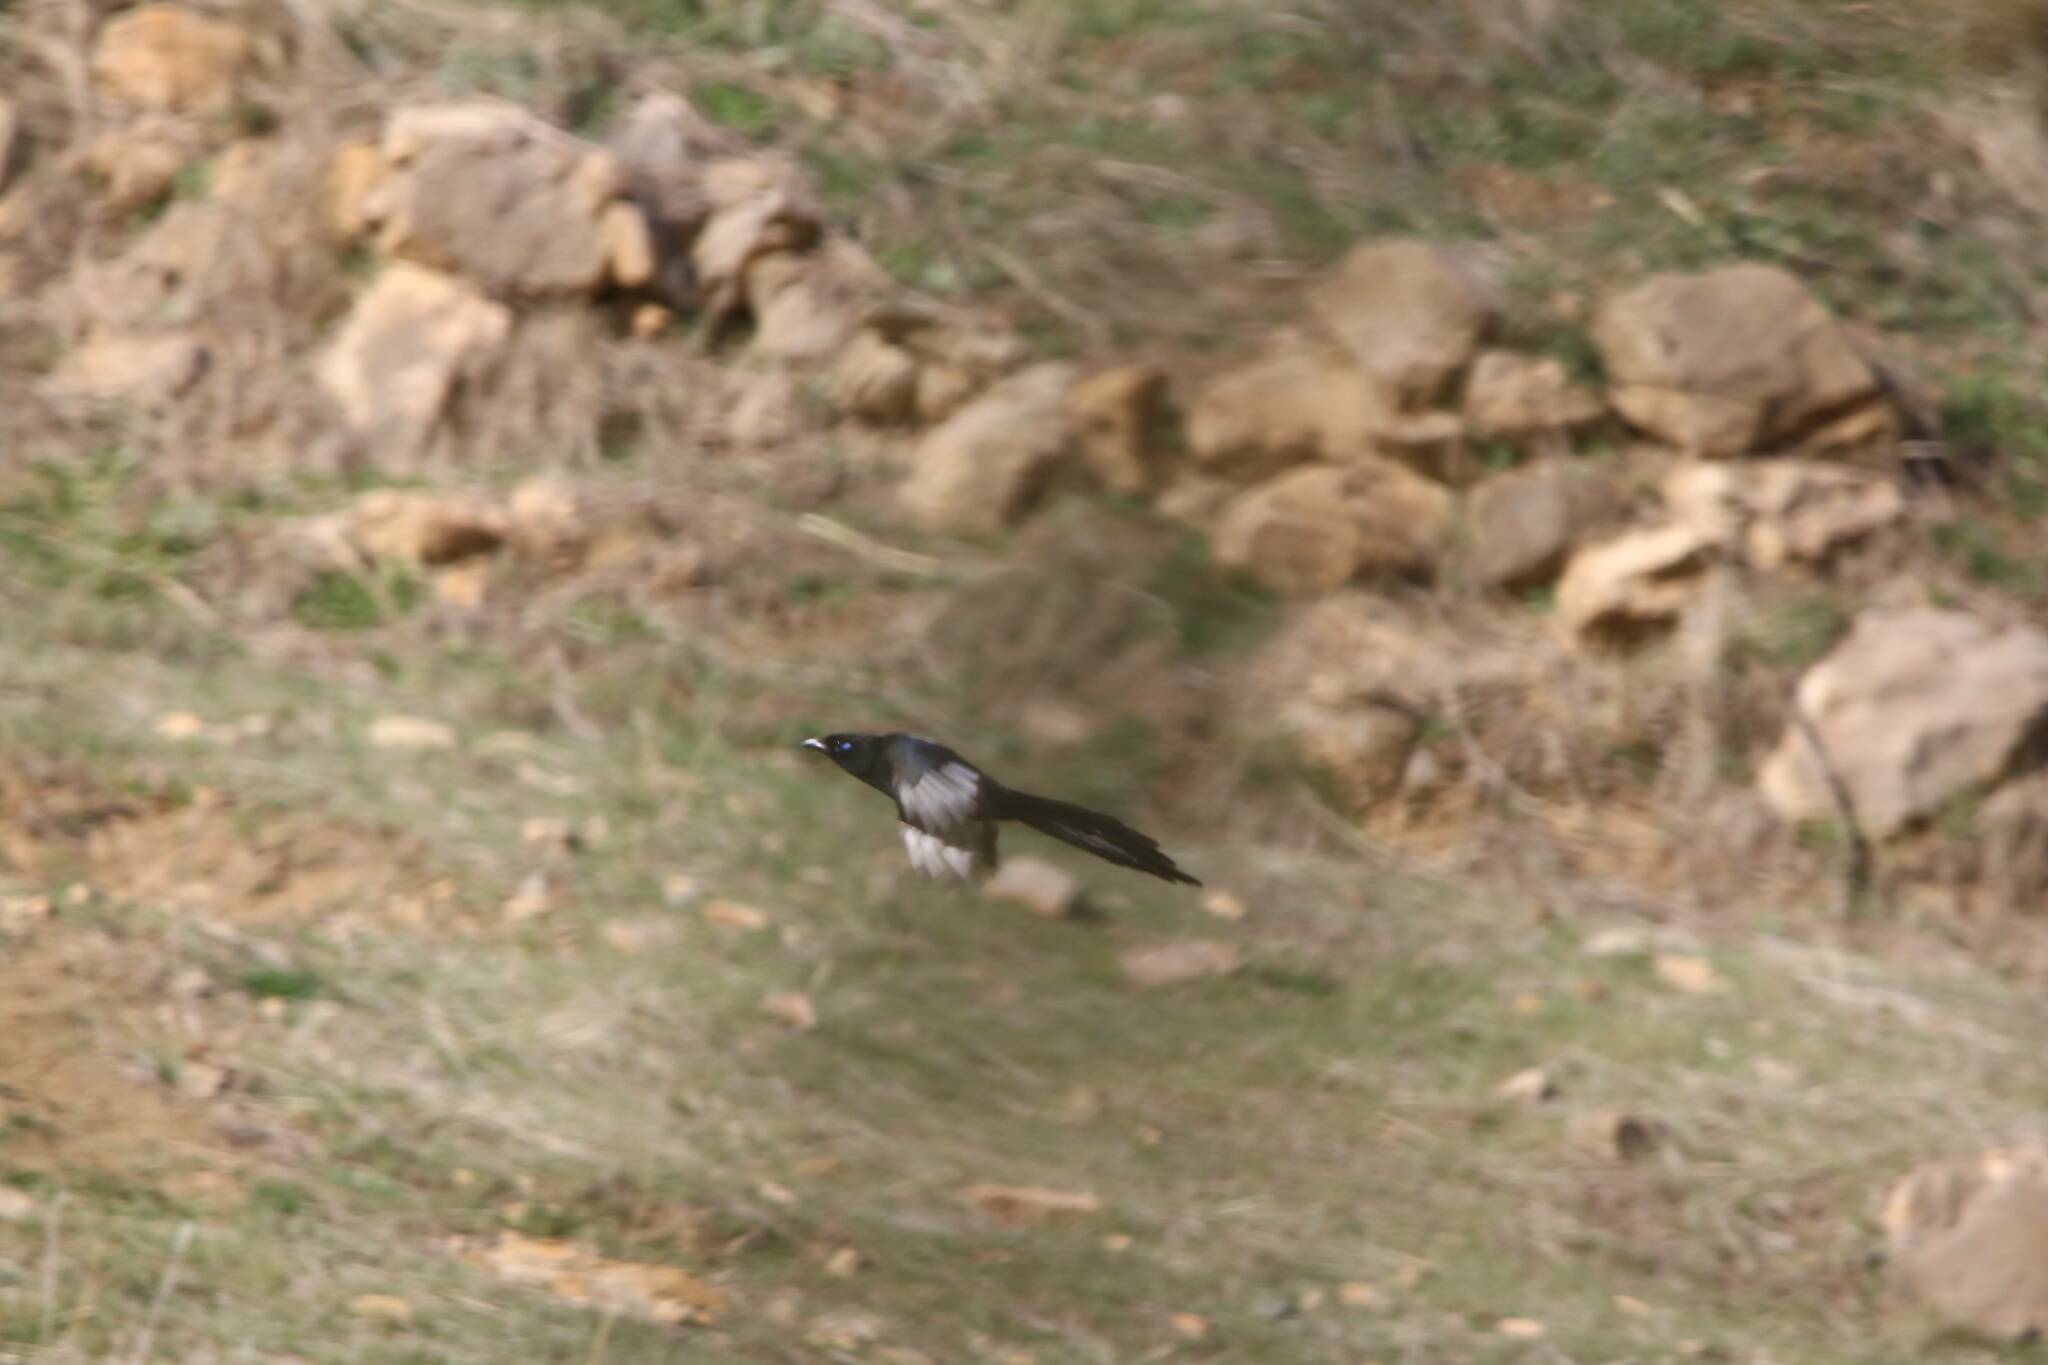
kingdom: Animalia
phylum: Chordata
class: Aves
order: Passeriformes
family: Corvidae
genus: Pica
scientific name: Pica mauritanica
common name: Maghreb magpie
